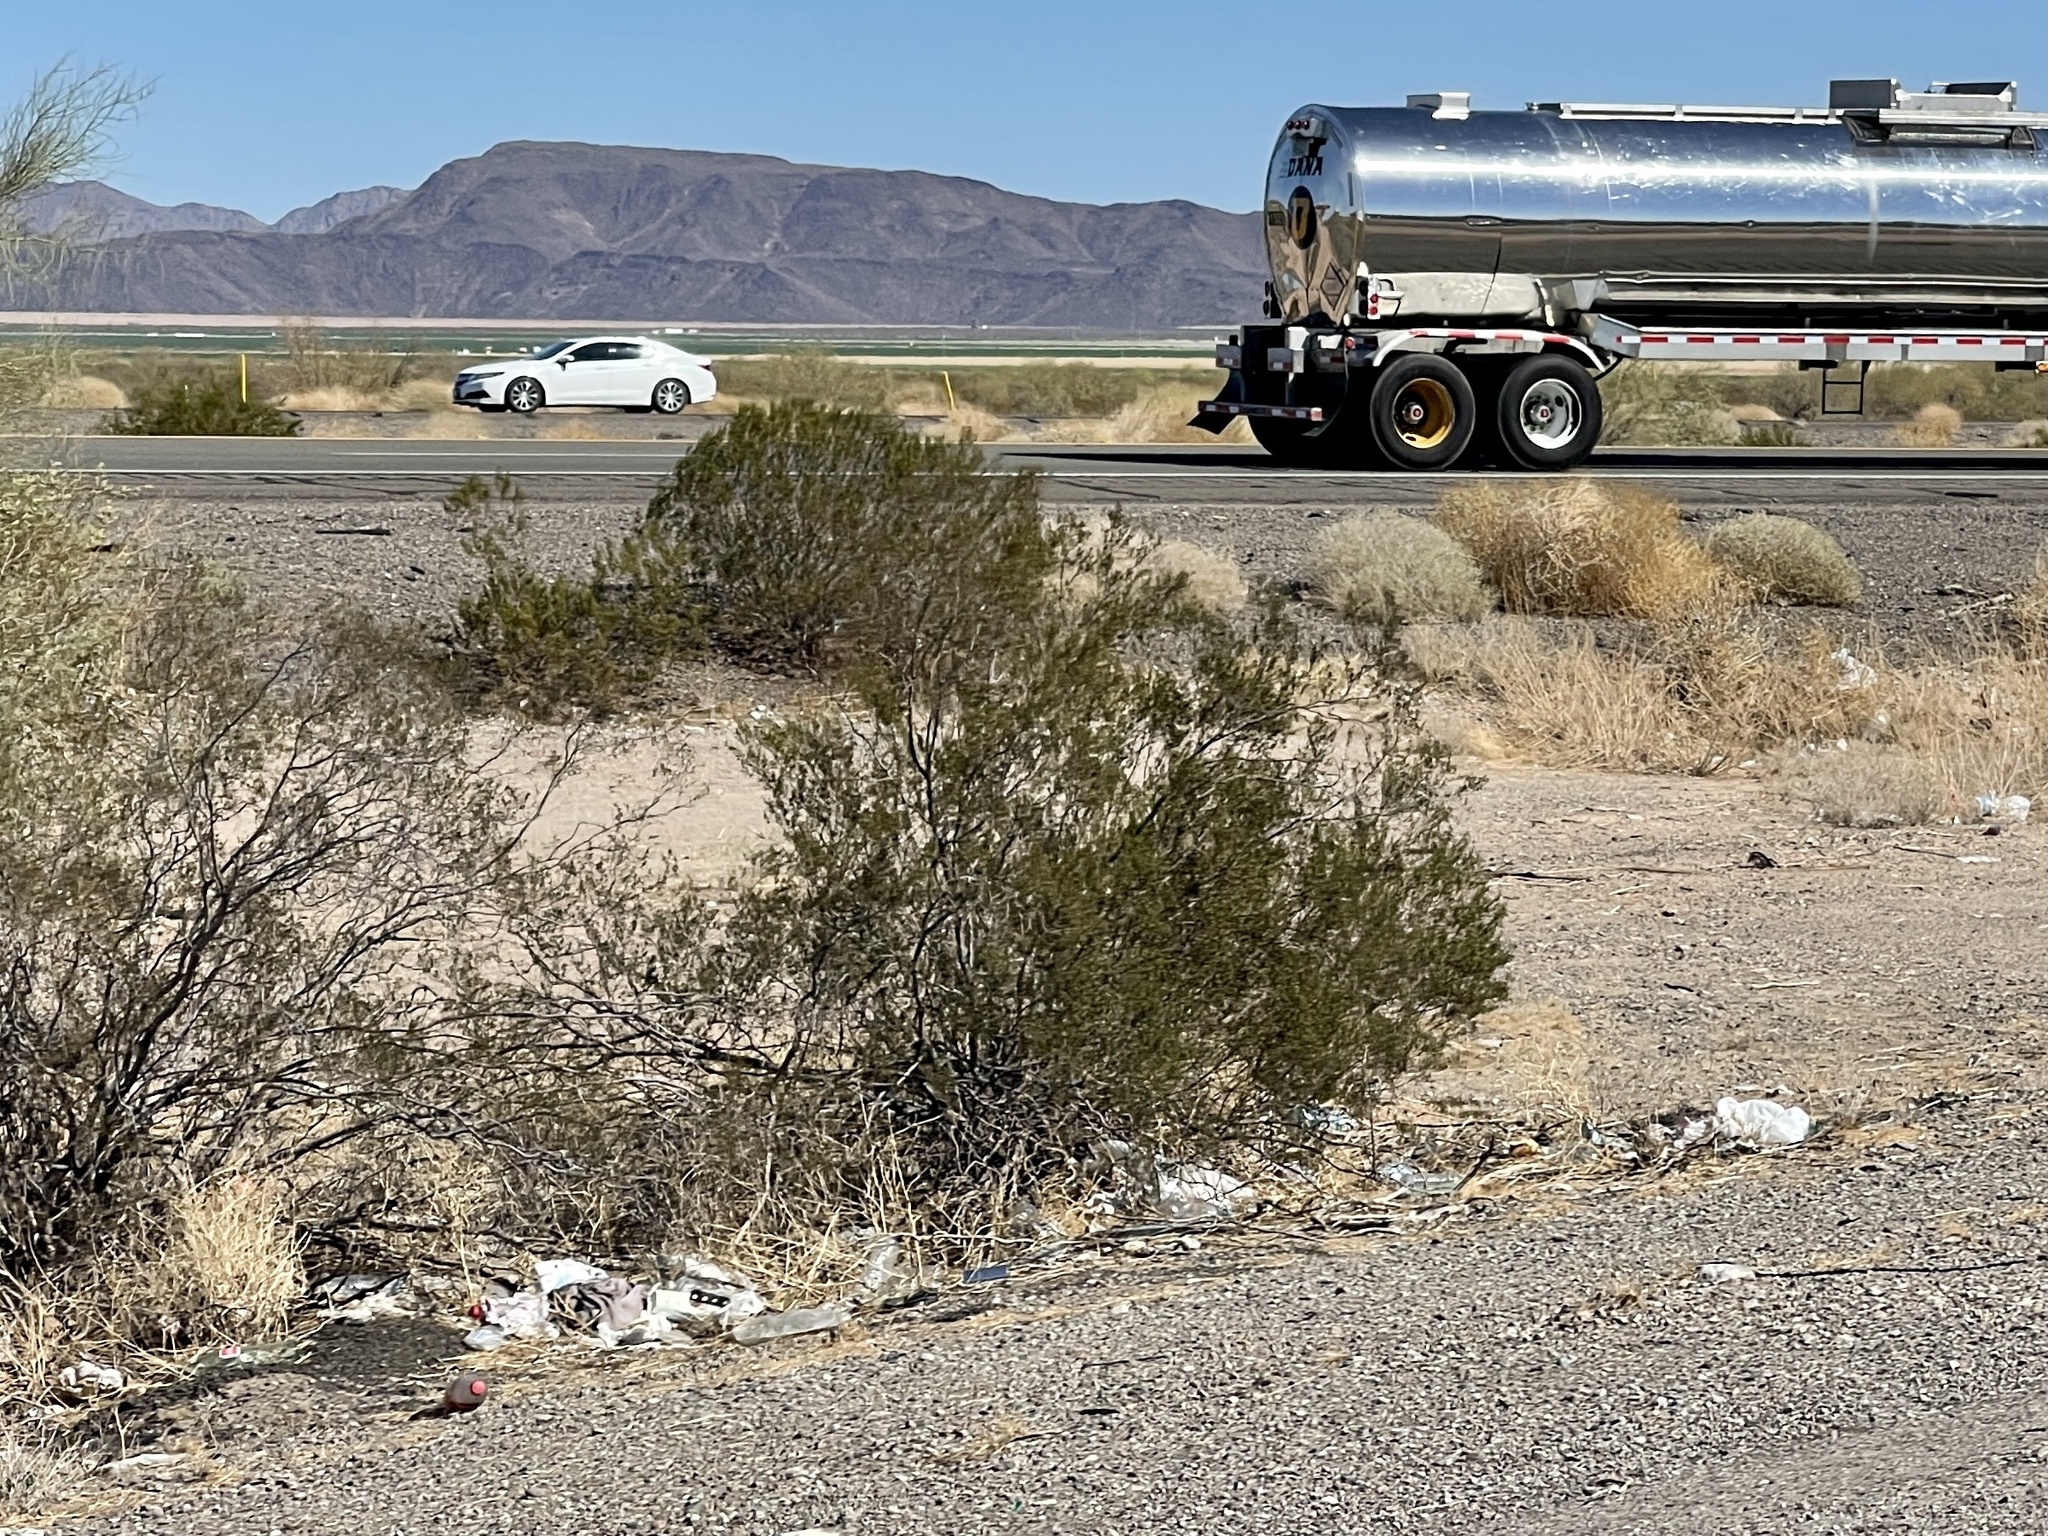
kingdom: Plantae
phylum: Tracheophyta
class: Magnoliopsida
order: Zygophyllales
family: Zygophyllaceae
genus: Larrea
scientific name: Larrea tridentata
